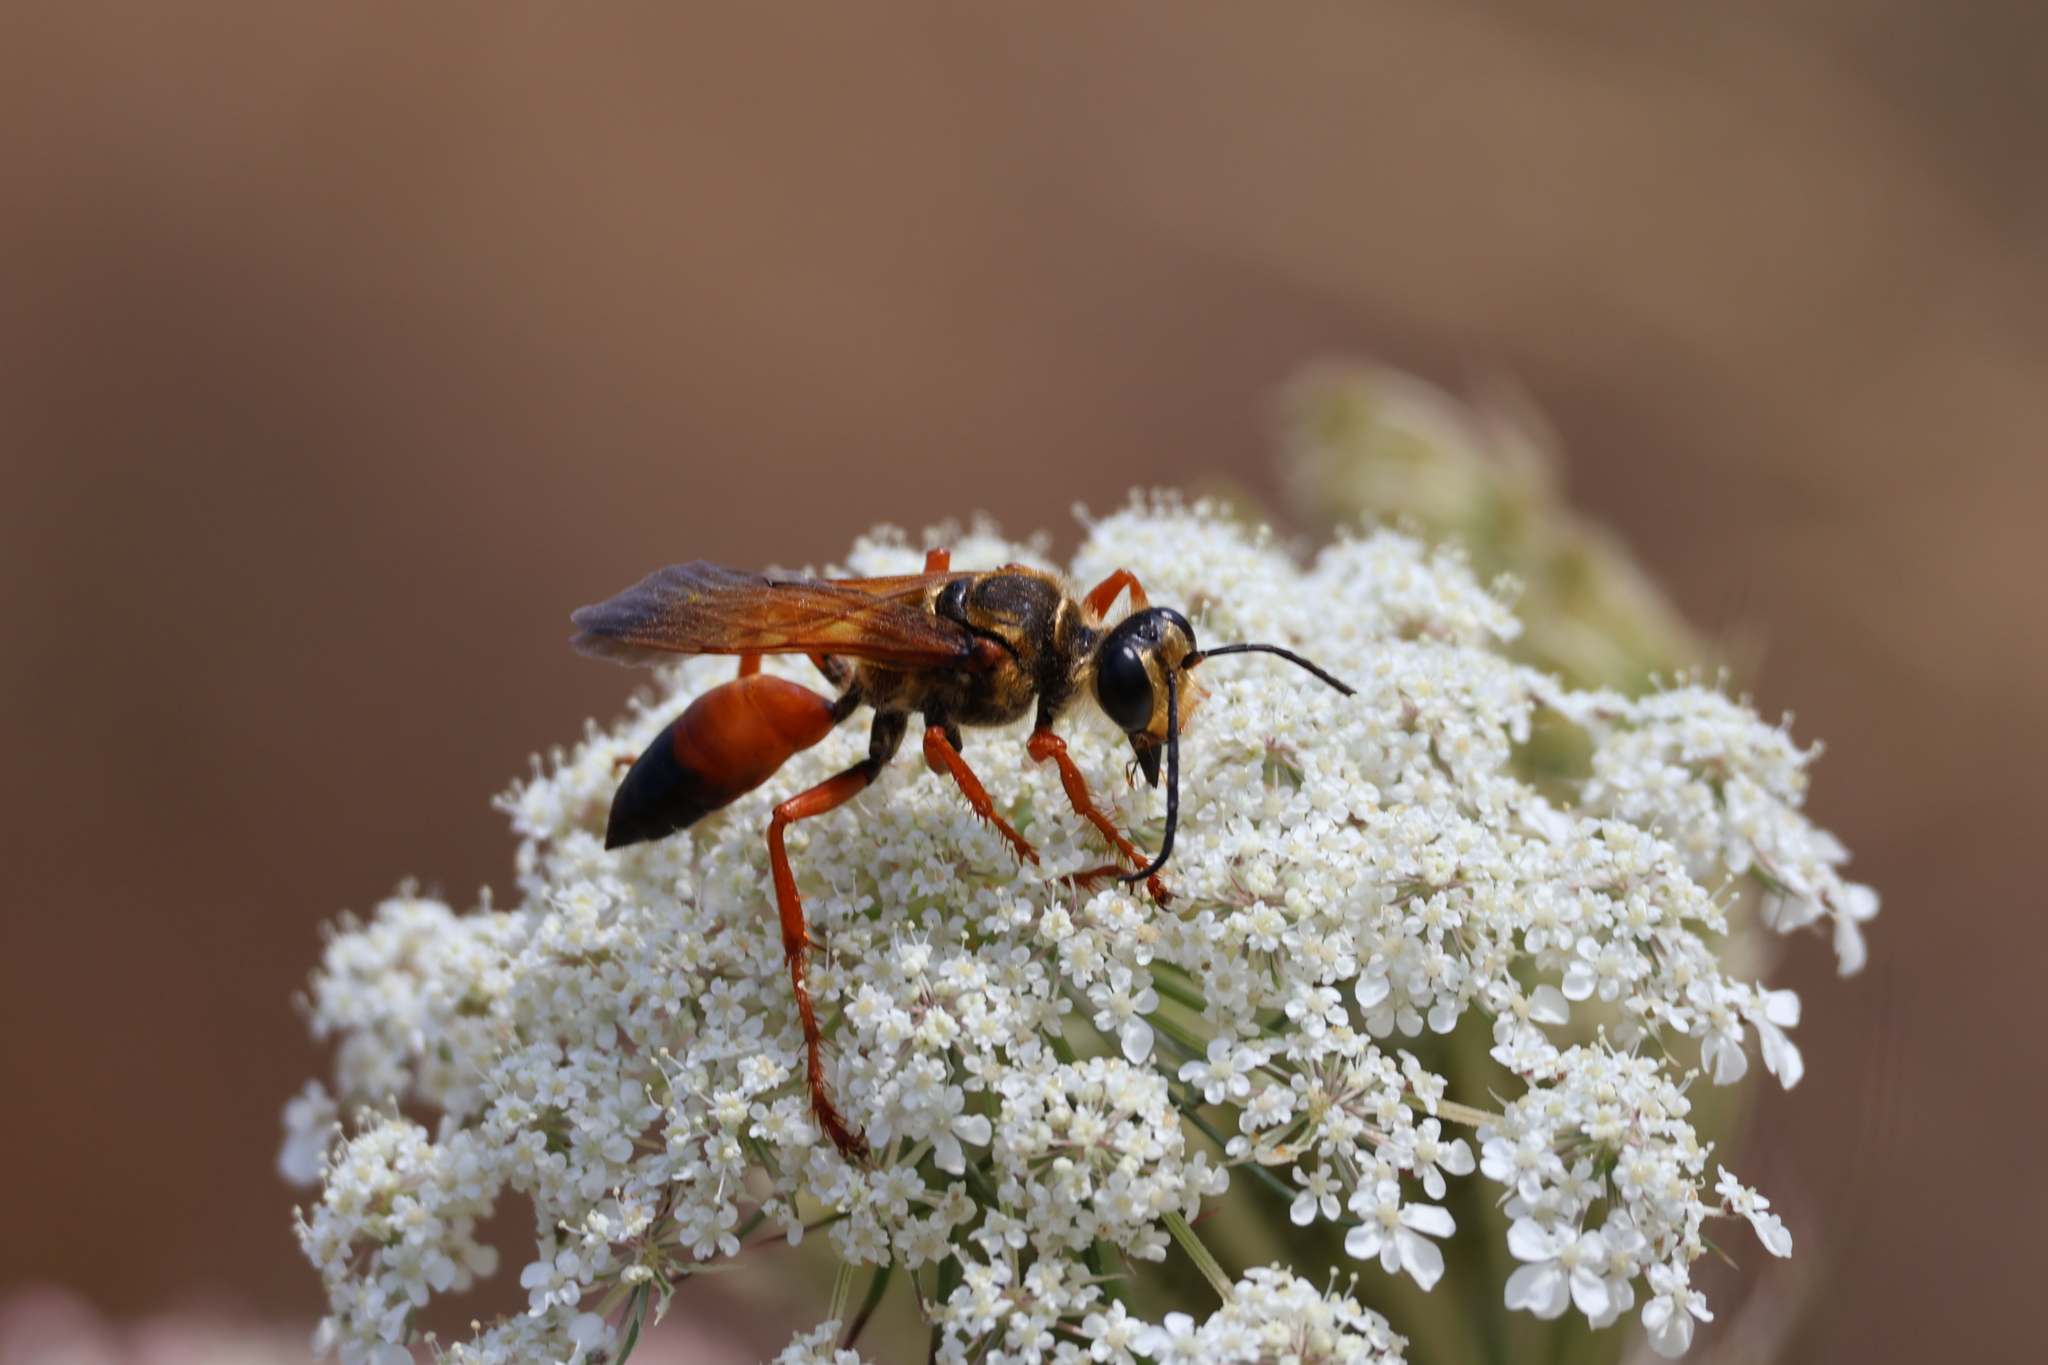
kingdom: Animalia
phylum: Arthropoda
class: Insecta
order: Hymenoptera
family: Sphecidae
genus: Sphex
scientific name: Sphex ichneumoneus
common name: Great golden digger wasp
